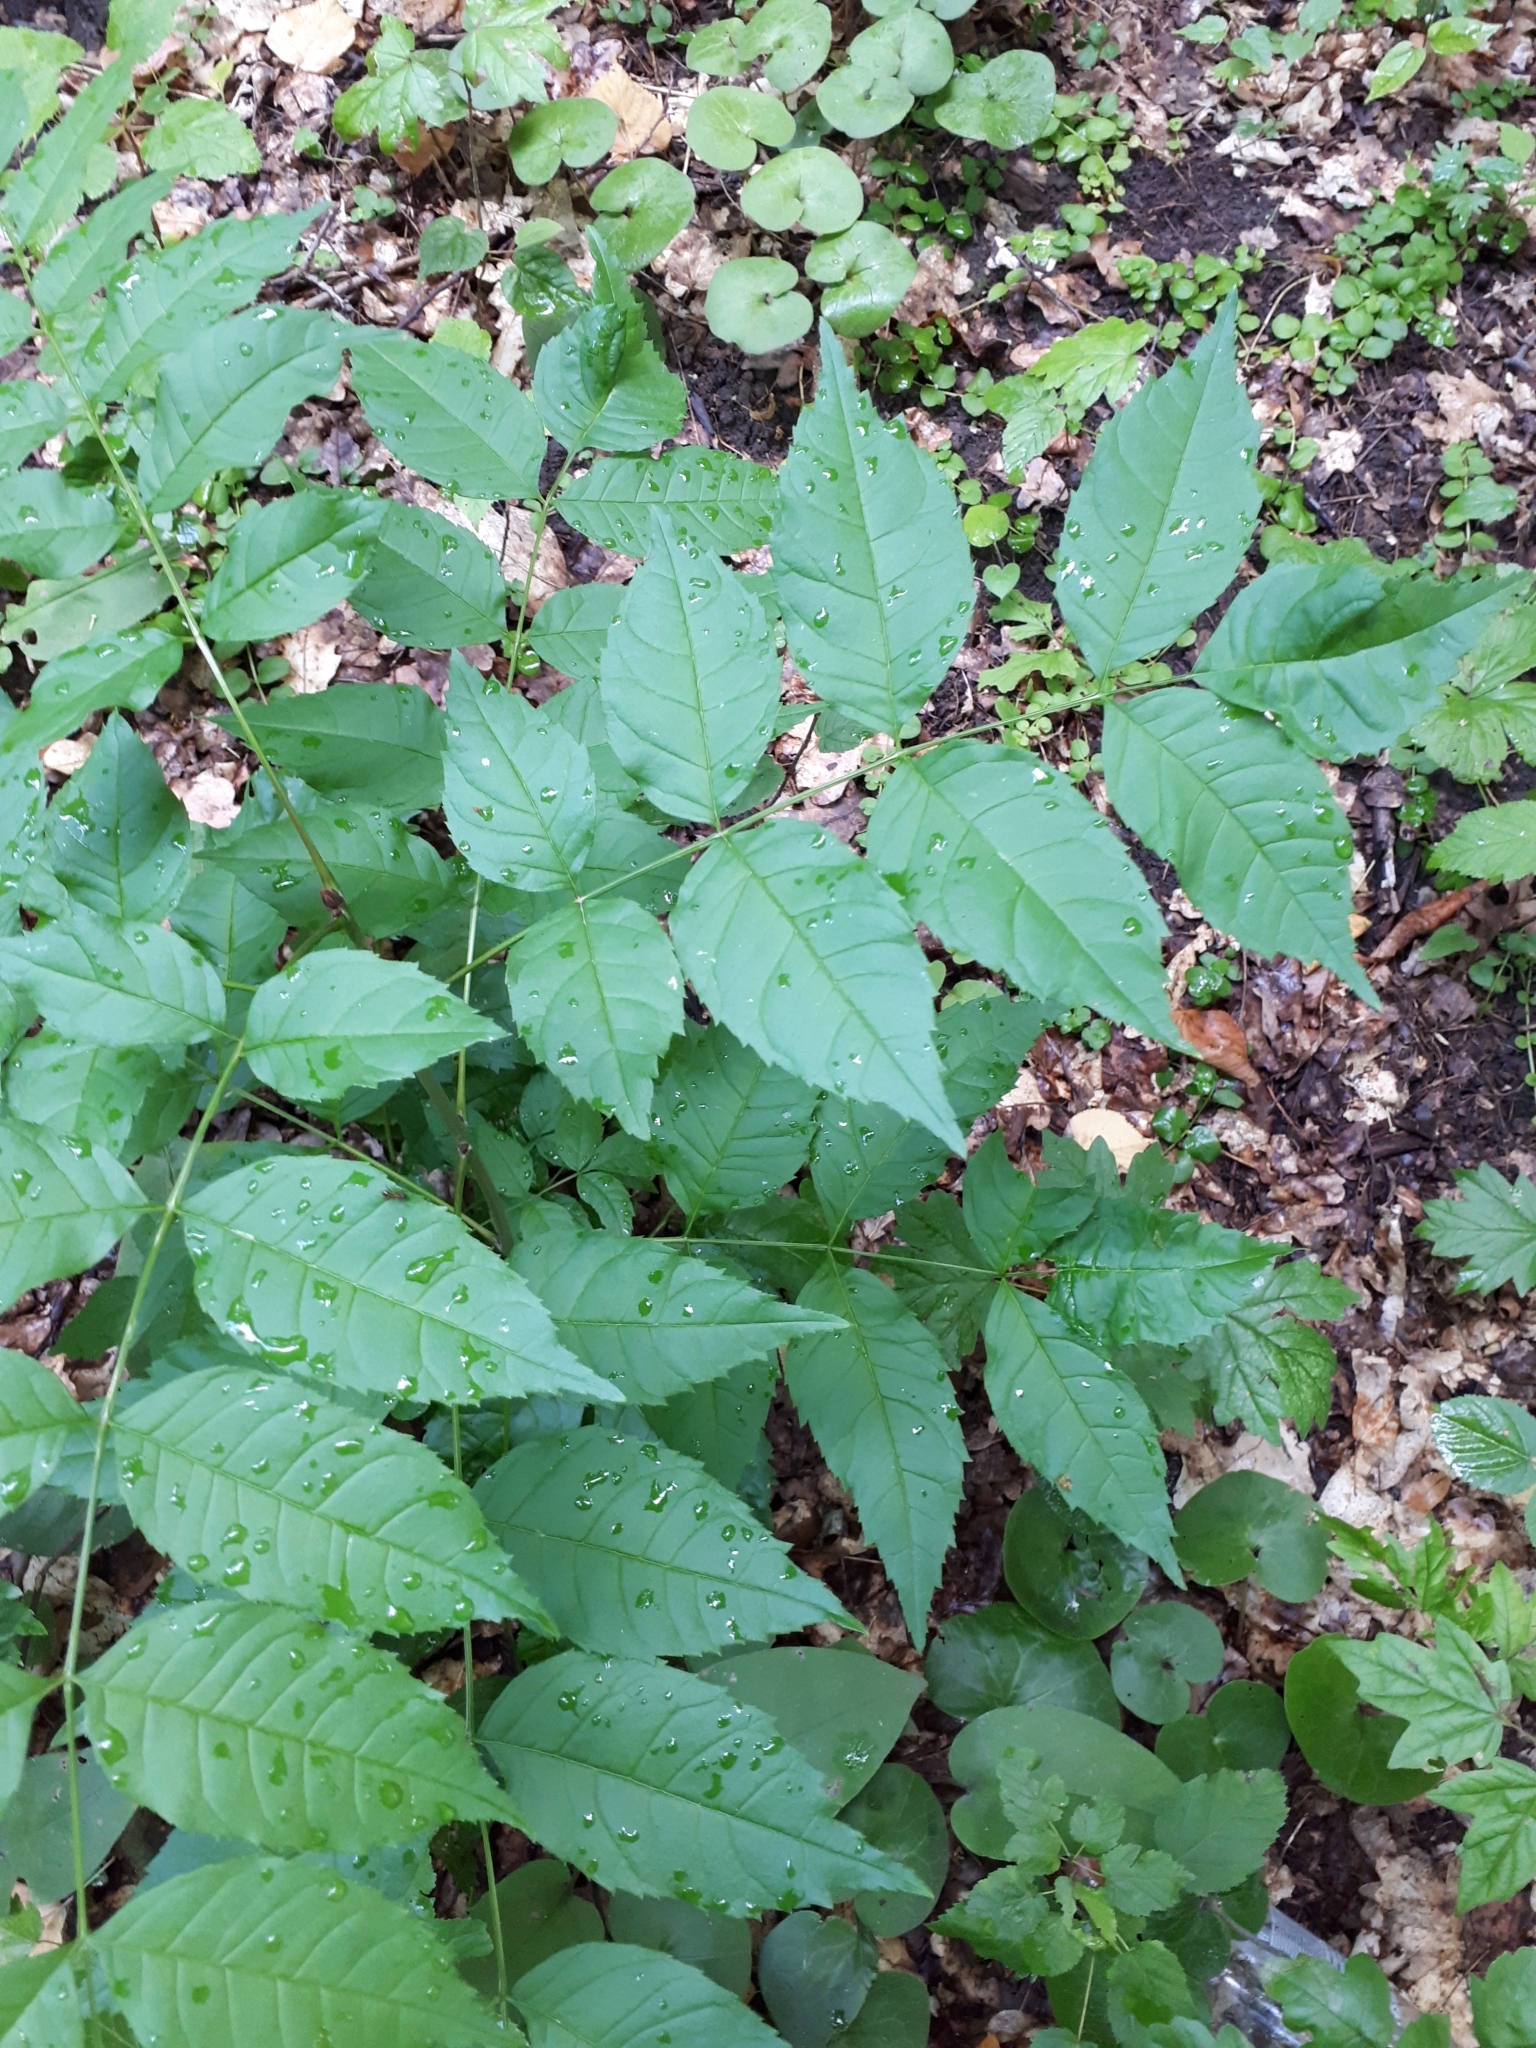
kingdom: Plantae
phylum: Tracheophyta
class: Magnoliopsida
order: Lamiales
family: Oleaceae
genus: Fraxinus
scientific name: Fraxinus excelsior
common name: European ash
